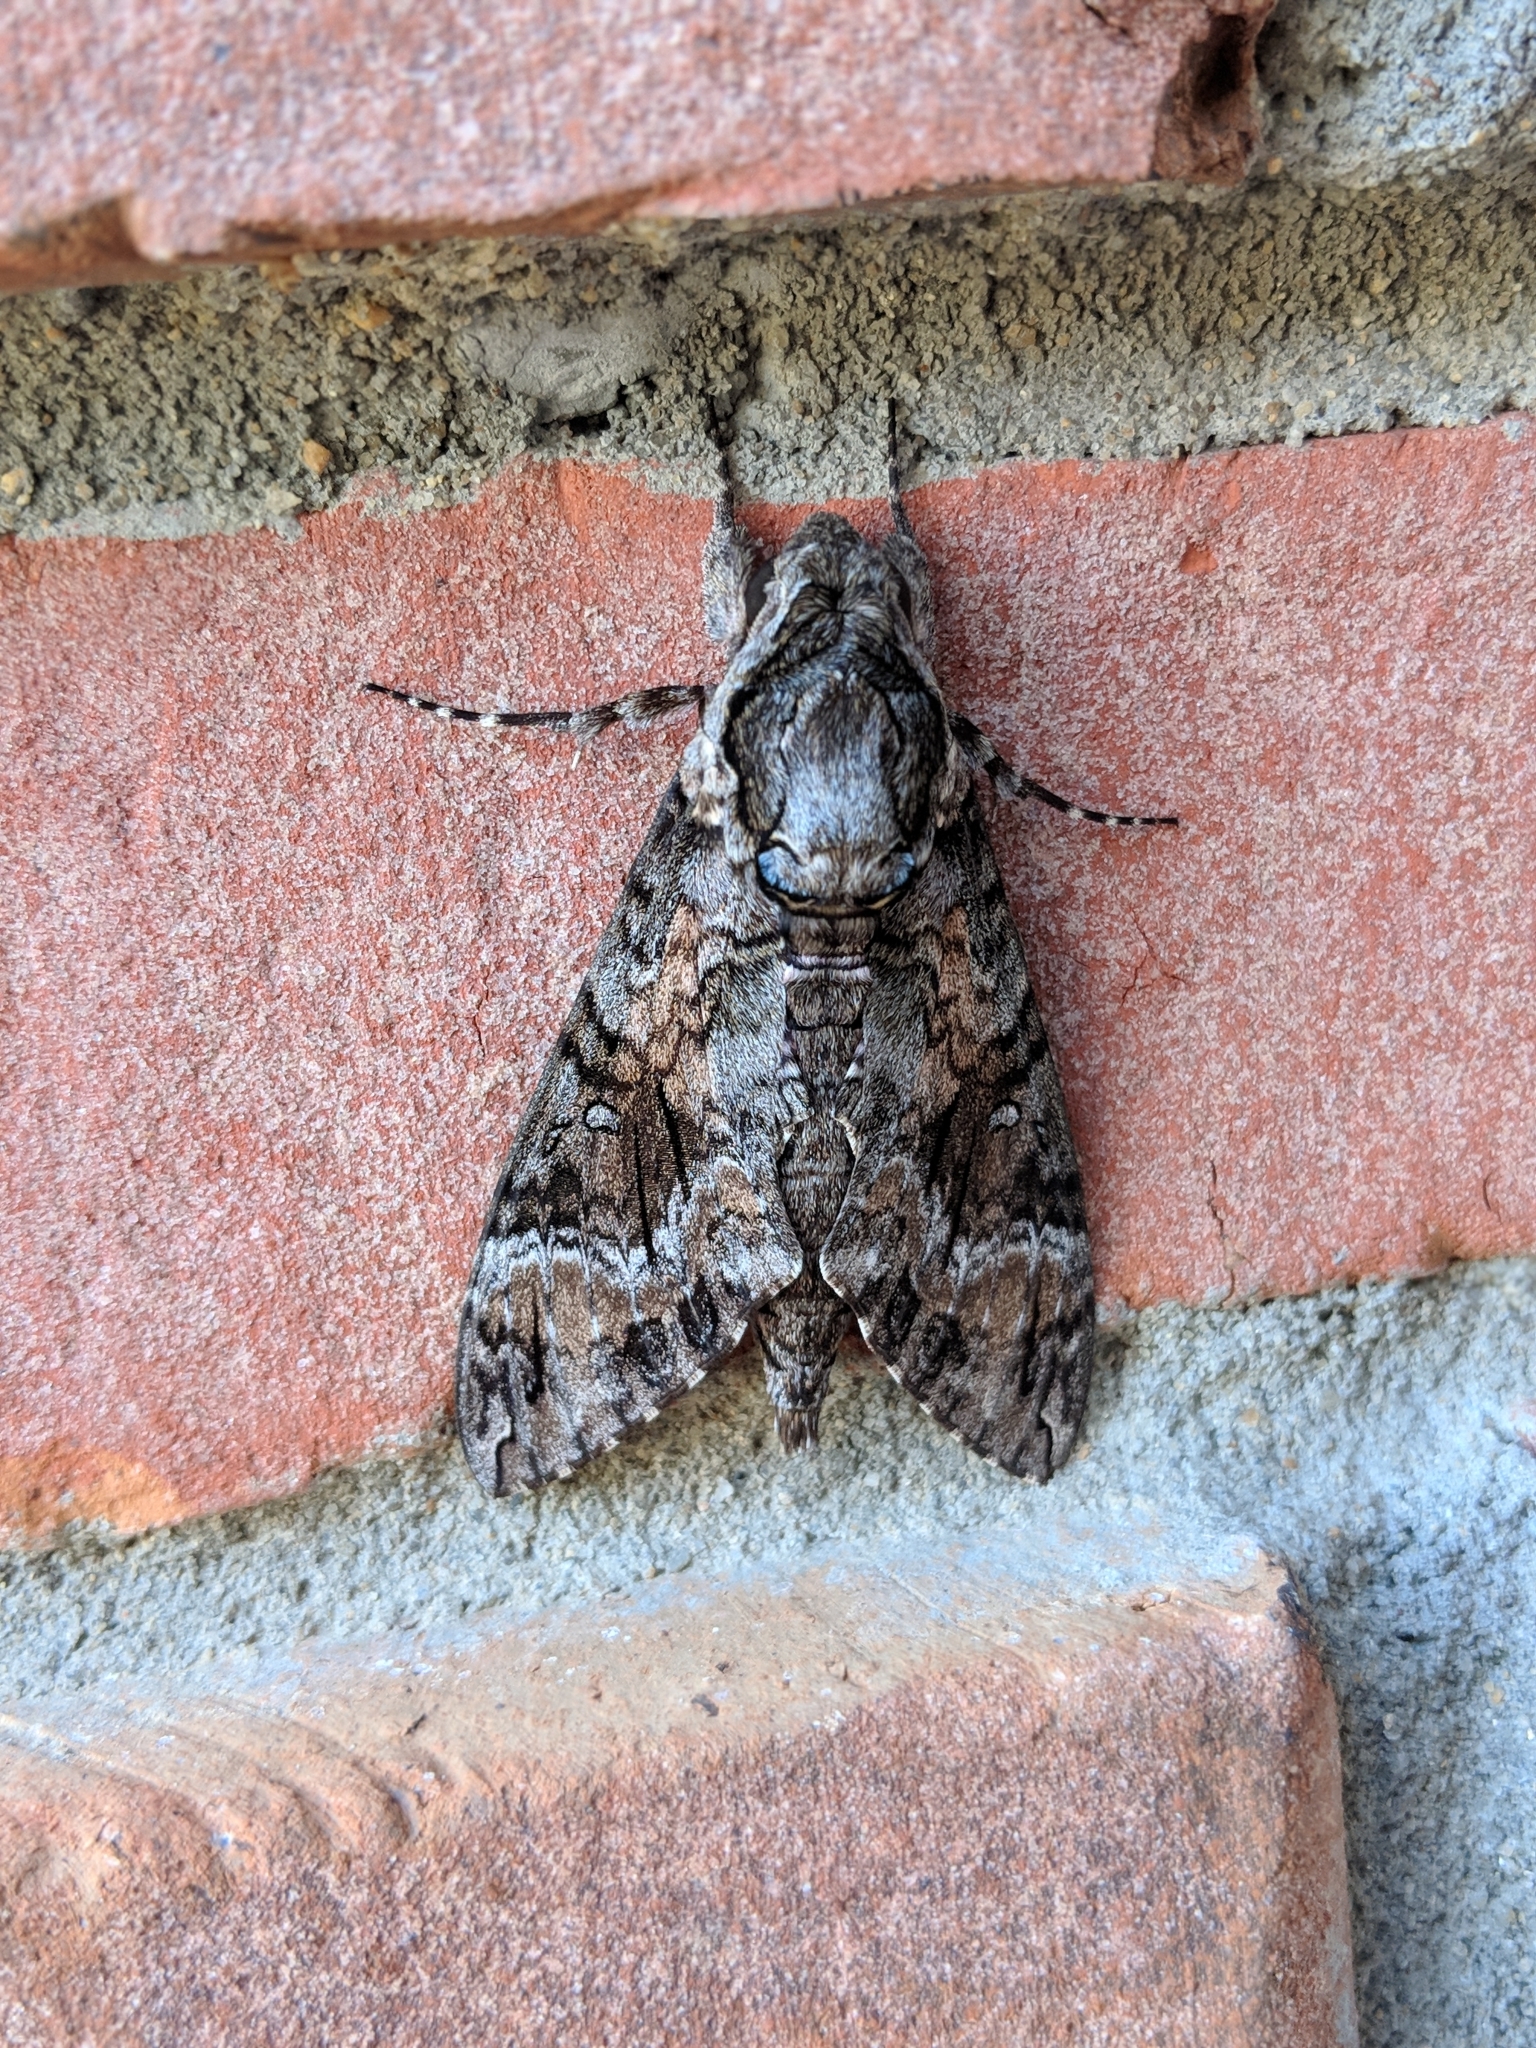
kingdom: Animalia
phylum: Arthropoda
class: Insecta
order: Lepidoptera
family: Sphingidae
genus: Agrius
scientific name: Agrius cingulata
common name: Pink-spotted hawkmoth
